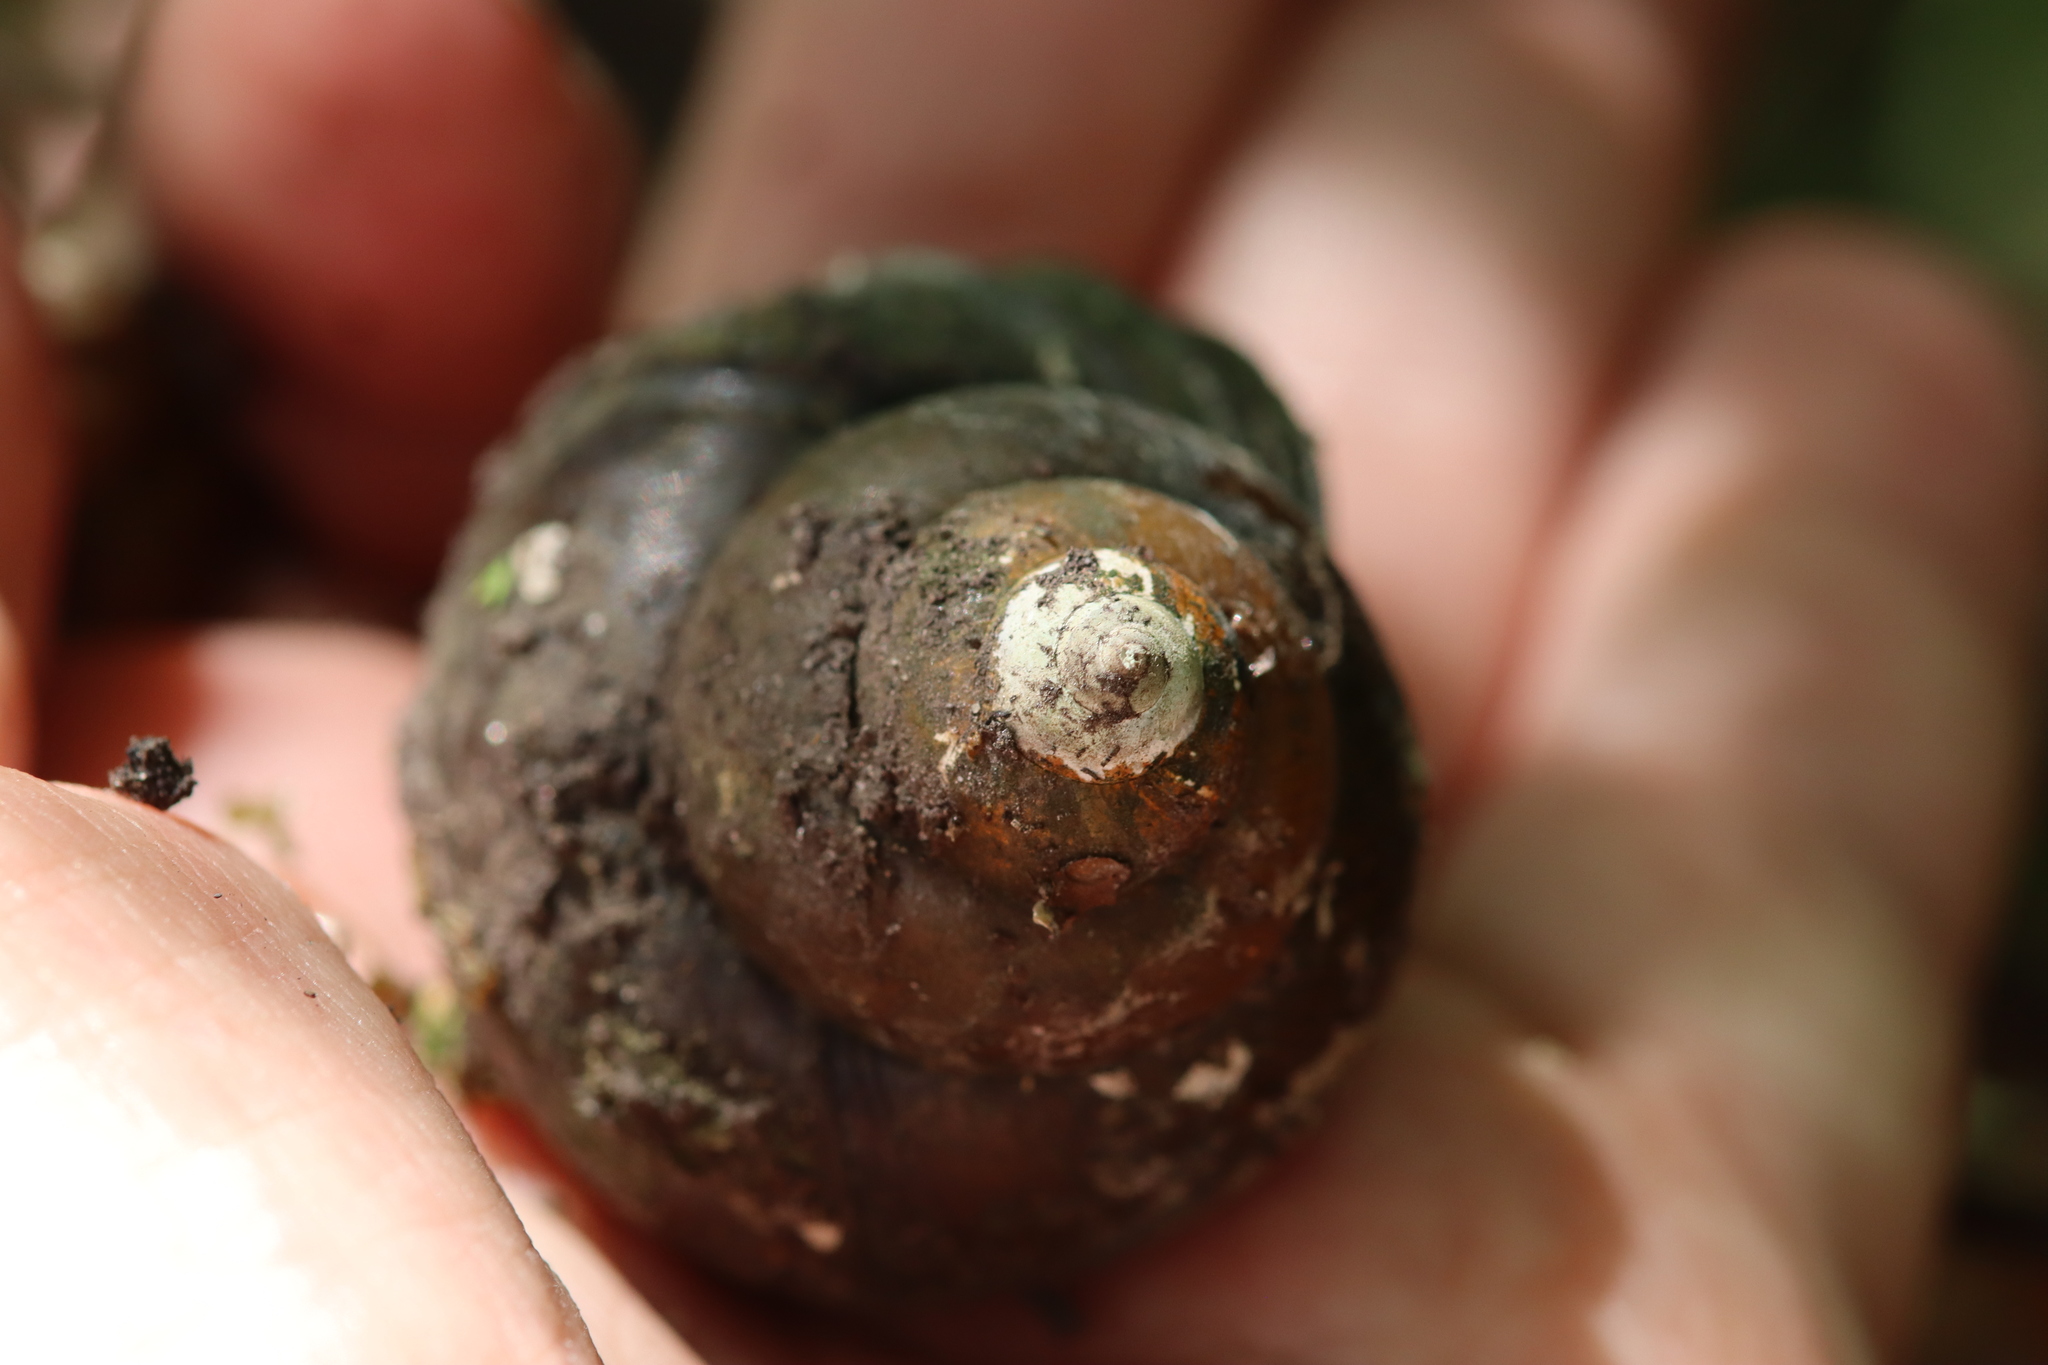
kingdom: Animalia
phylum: Mollusca
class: Gastropoda
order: Architaenioglossa
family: Viviparidae
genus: Cipangopaludina
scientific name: Cipangopaludina chinensis
